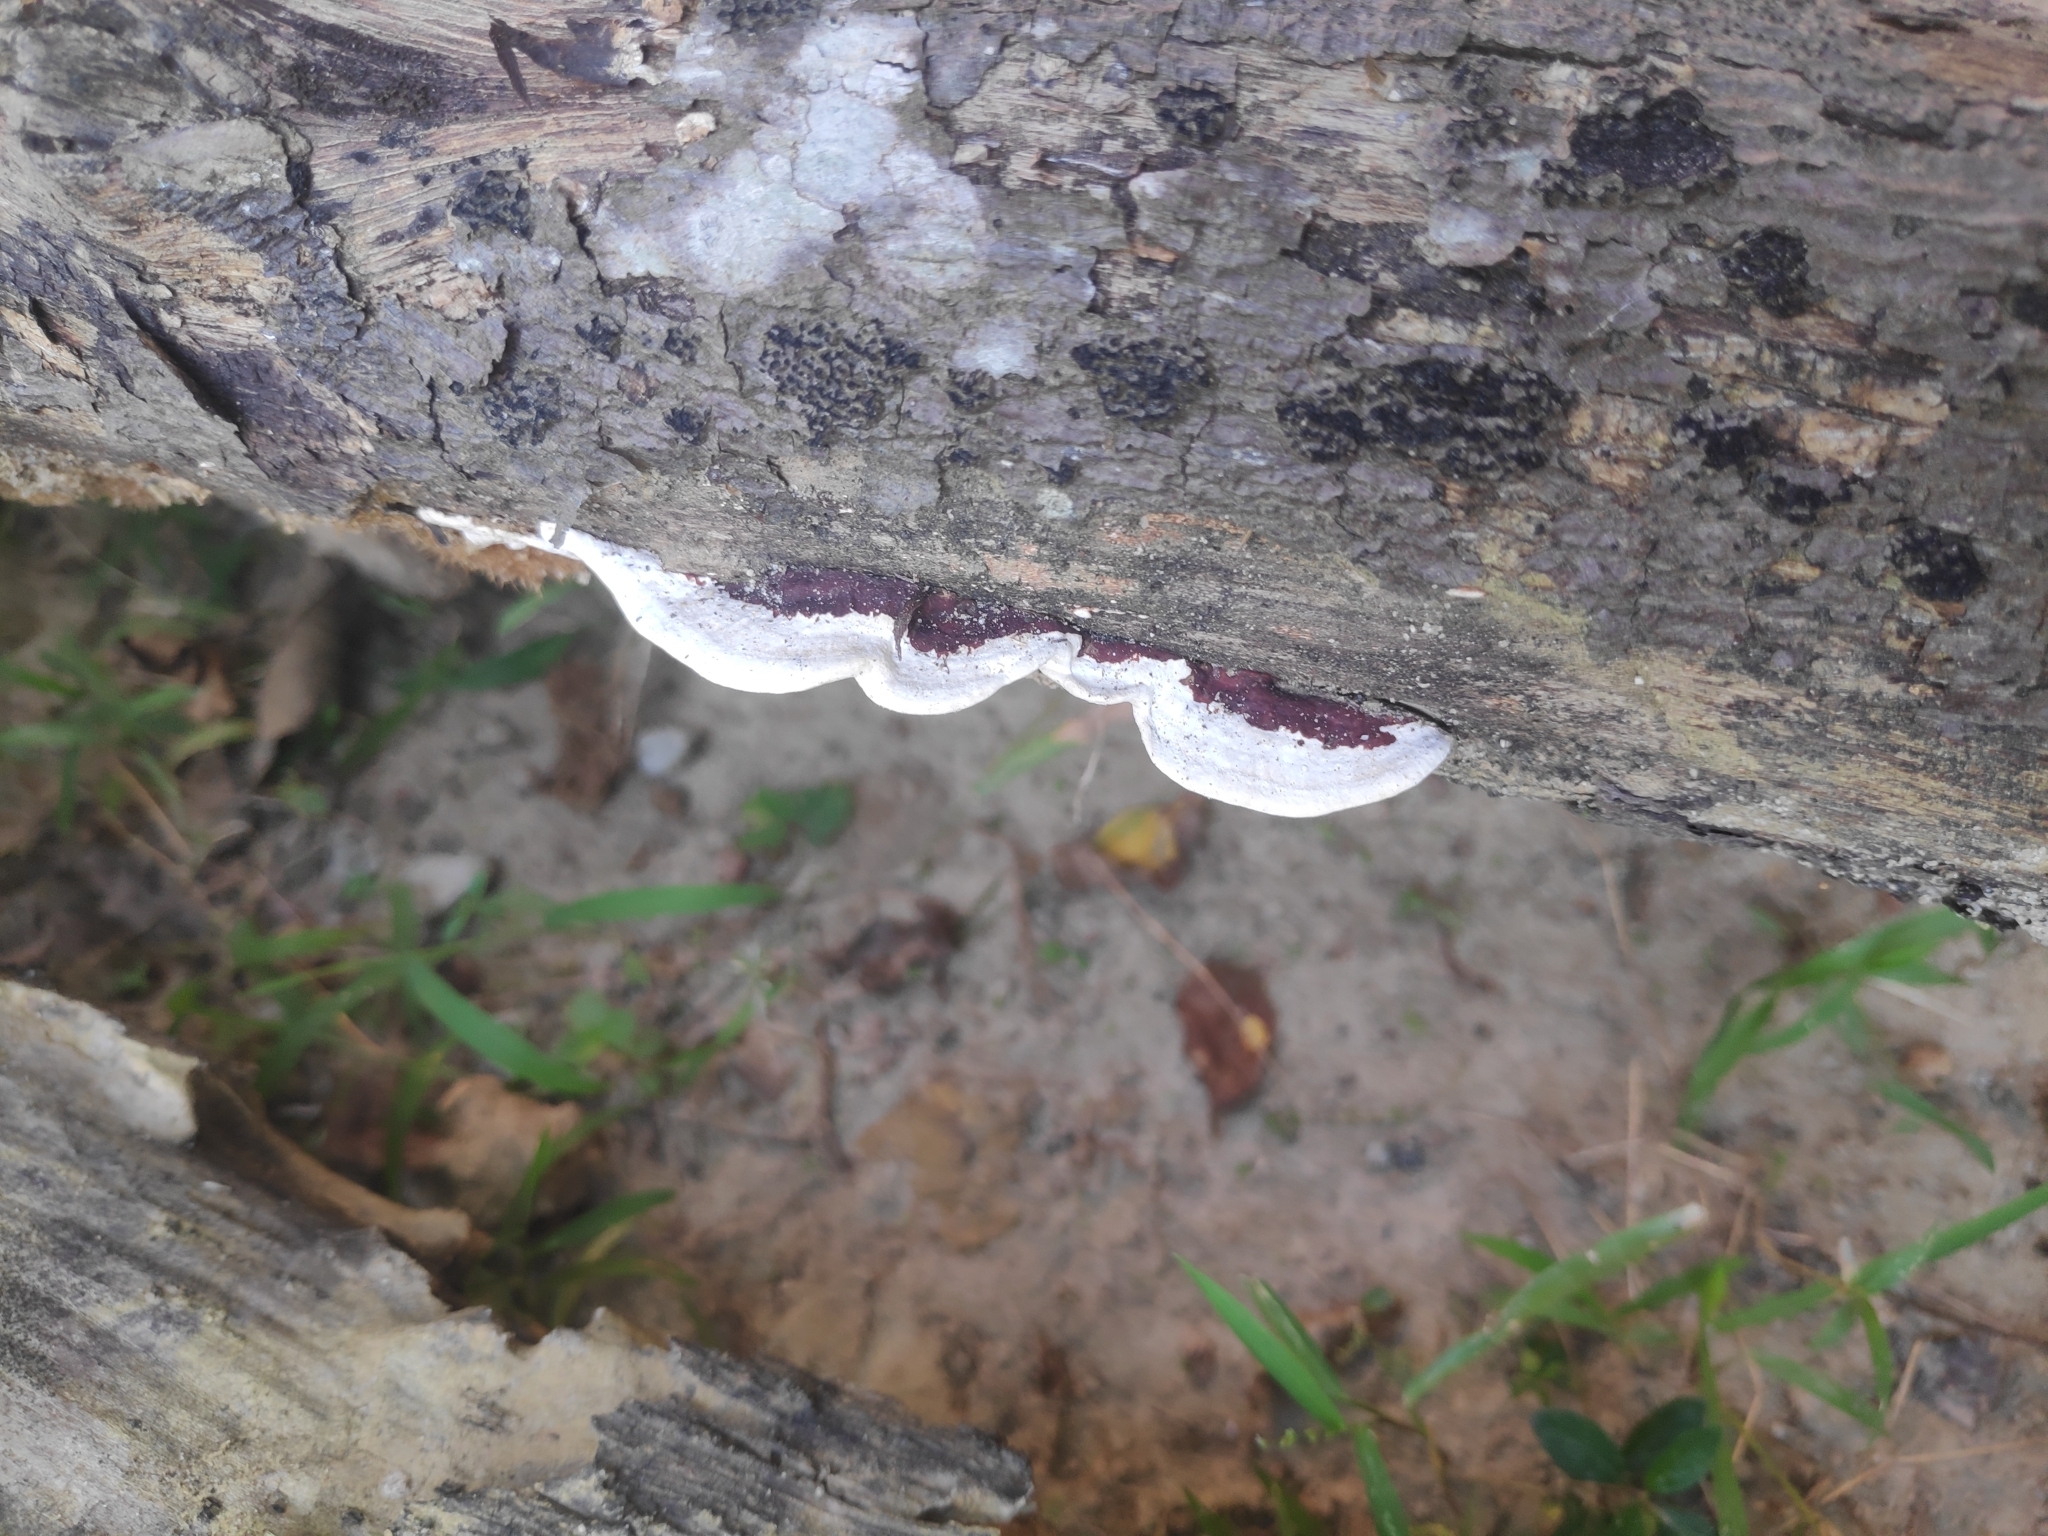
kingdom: Fungi
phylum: Basidiomycota
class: Agaricomycetes
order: Polyporales
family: Polyporaceae
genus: Earliella
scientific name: Earliella scabrosa
